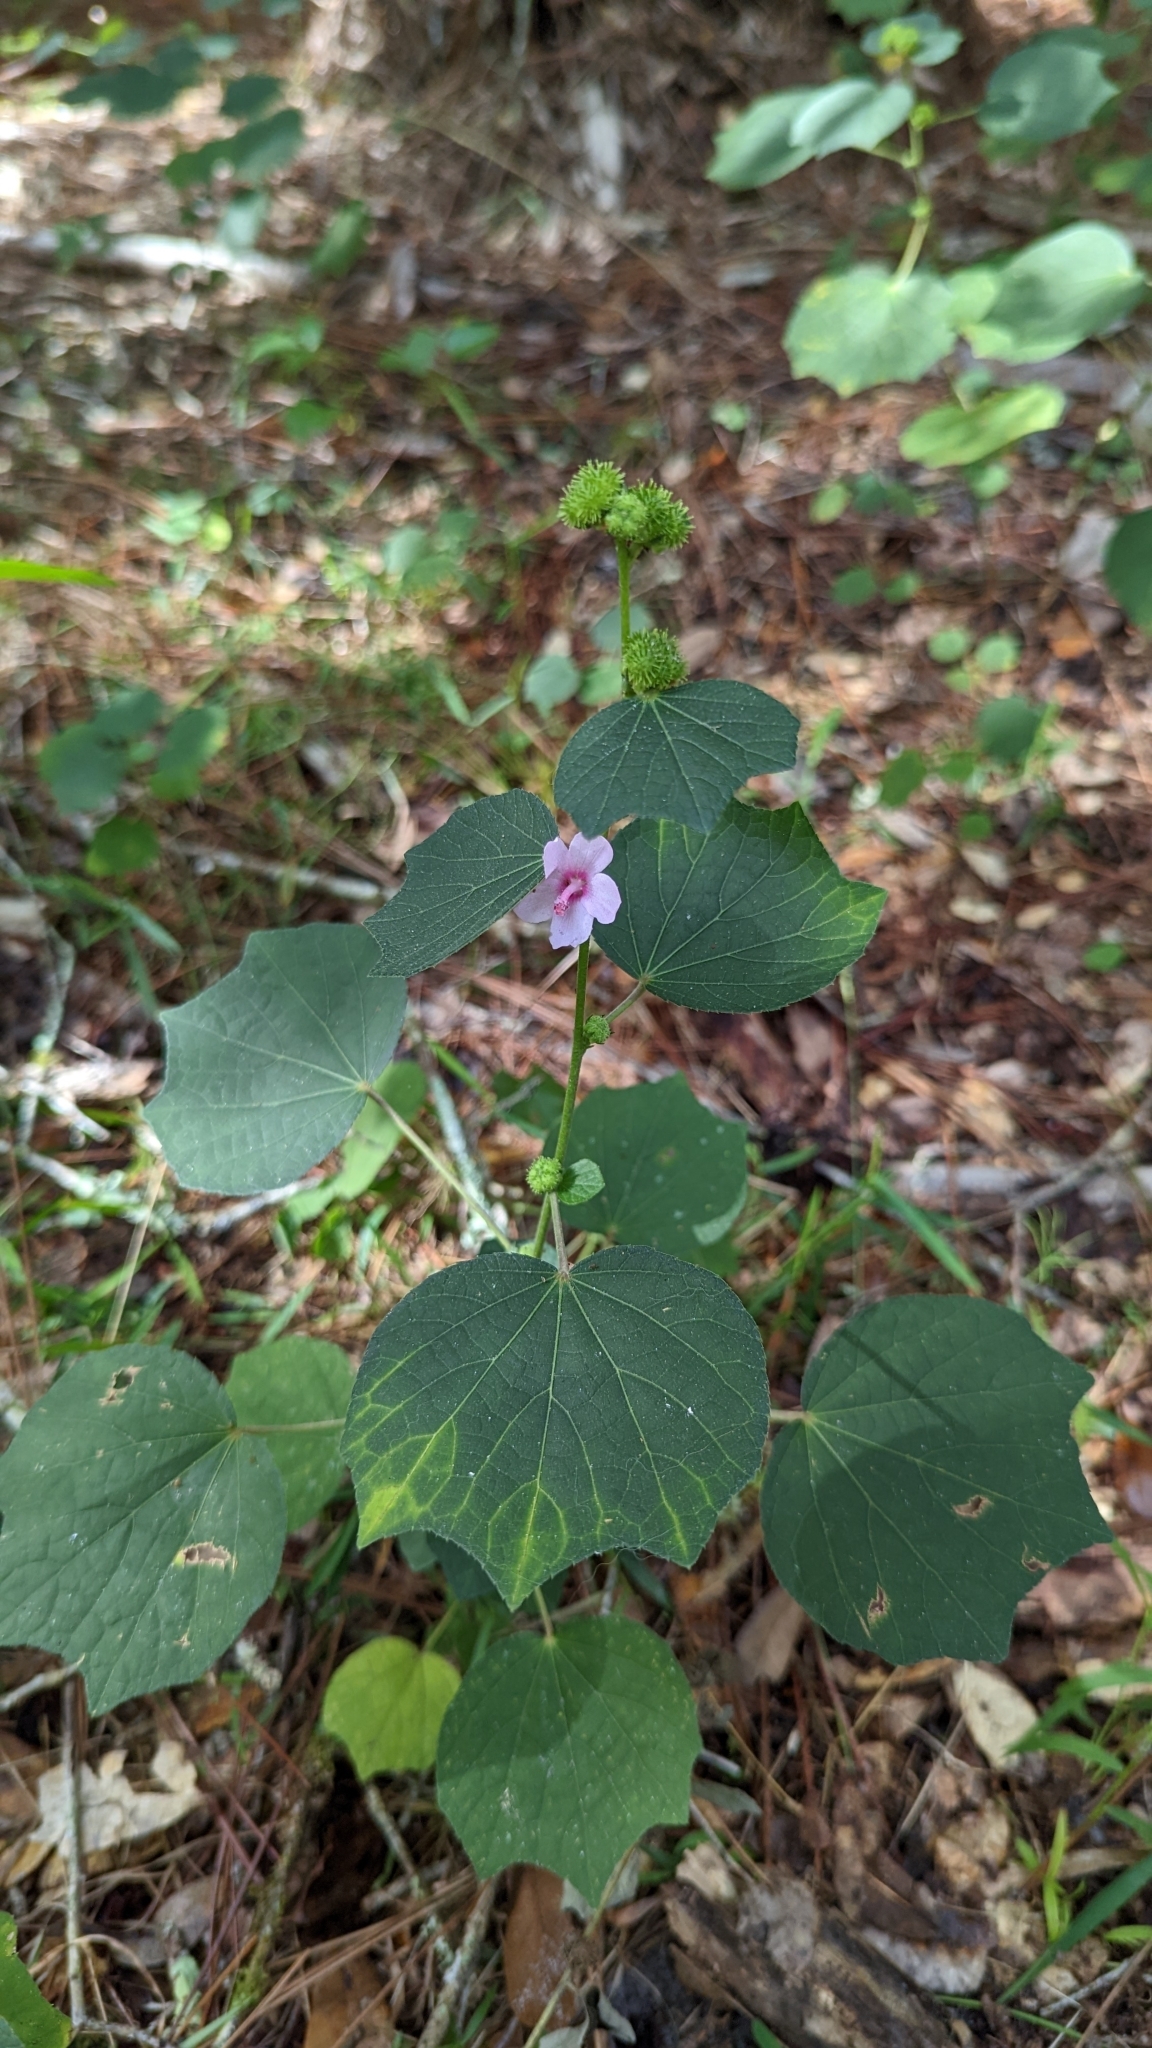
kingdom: Plantae
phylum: Tracheophyta
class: Magnoliopsida
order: Malvales
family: Malvaceae
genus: Urena
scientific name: Urena lobata
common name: Caesarweed
